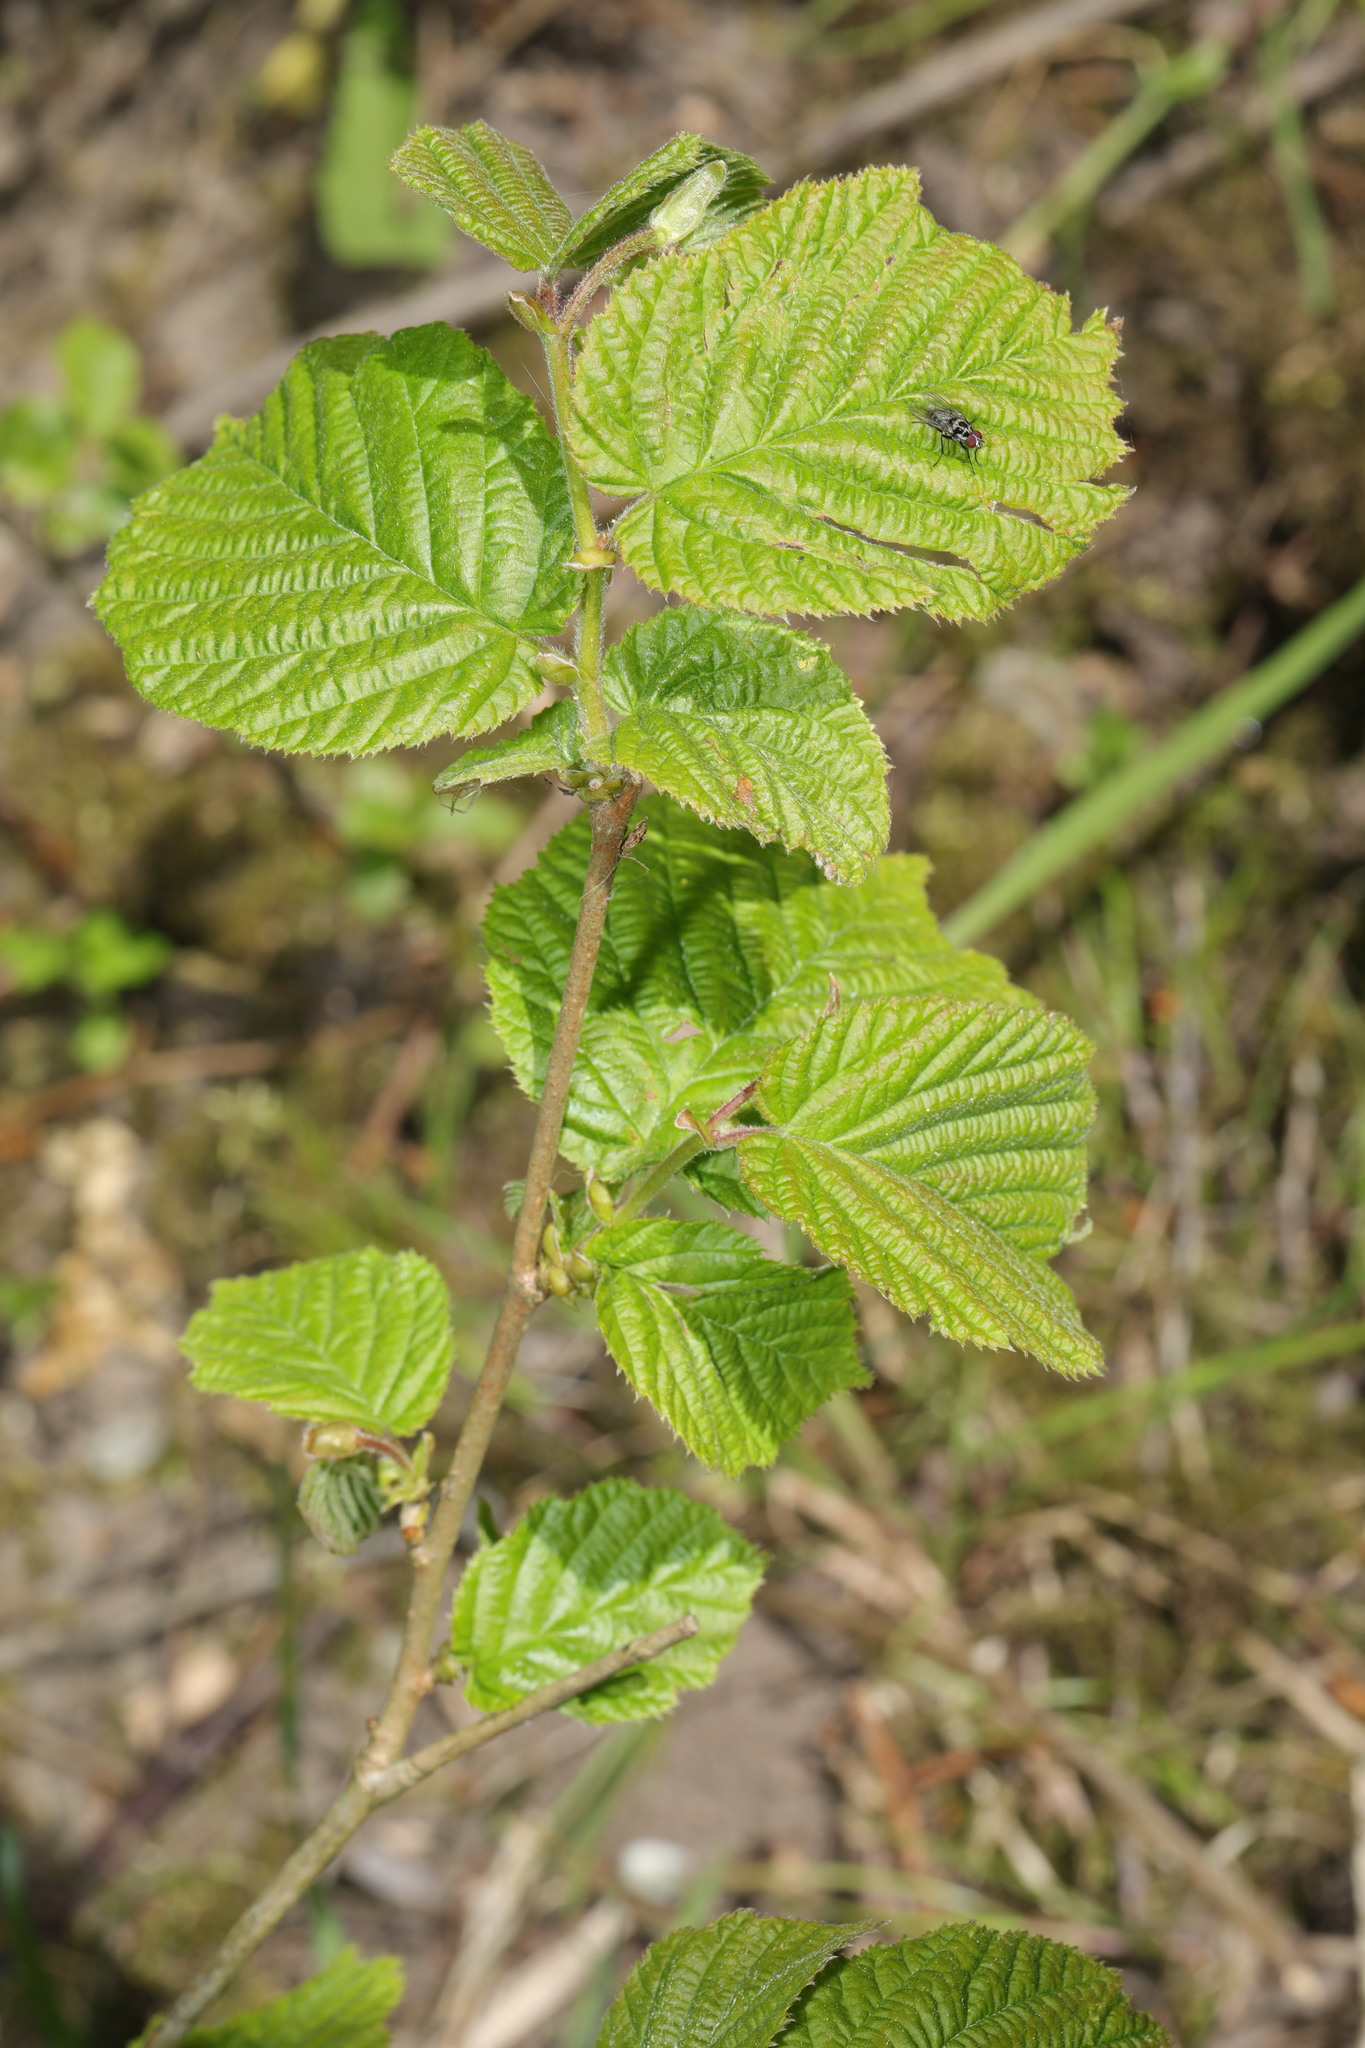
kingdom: Plantae
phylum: Tracheophyta
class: Magnoliopsida
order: Fagales
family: Betulaceae
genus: Corylus
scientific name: Corylus avellana
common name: European hazel
